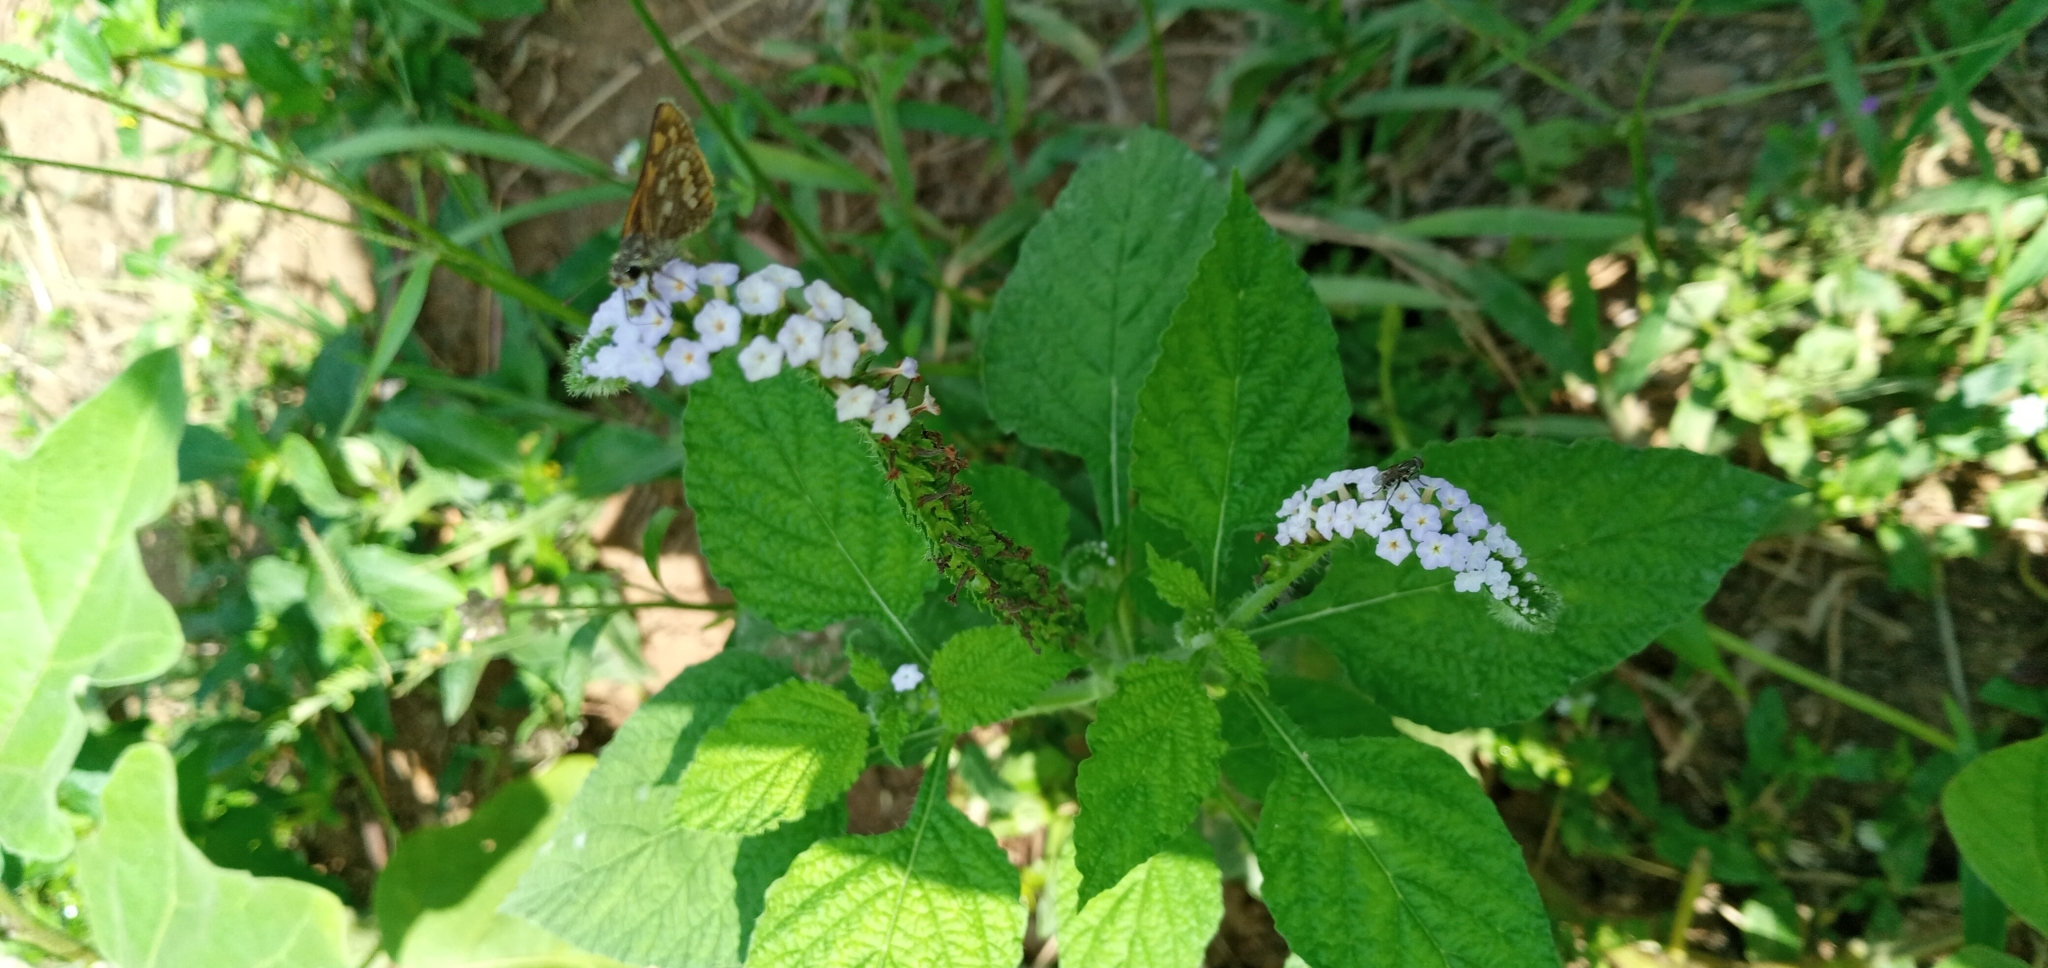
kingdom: Plantae
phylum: Tracheophyta
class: Magnoliopsida
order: Boraginales
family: Heliotropiaceae
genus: Heliotropium
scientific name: Heliotropium indicum
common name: Indian heliotrope
